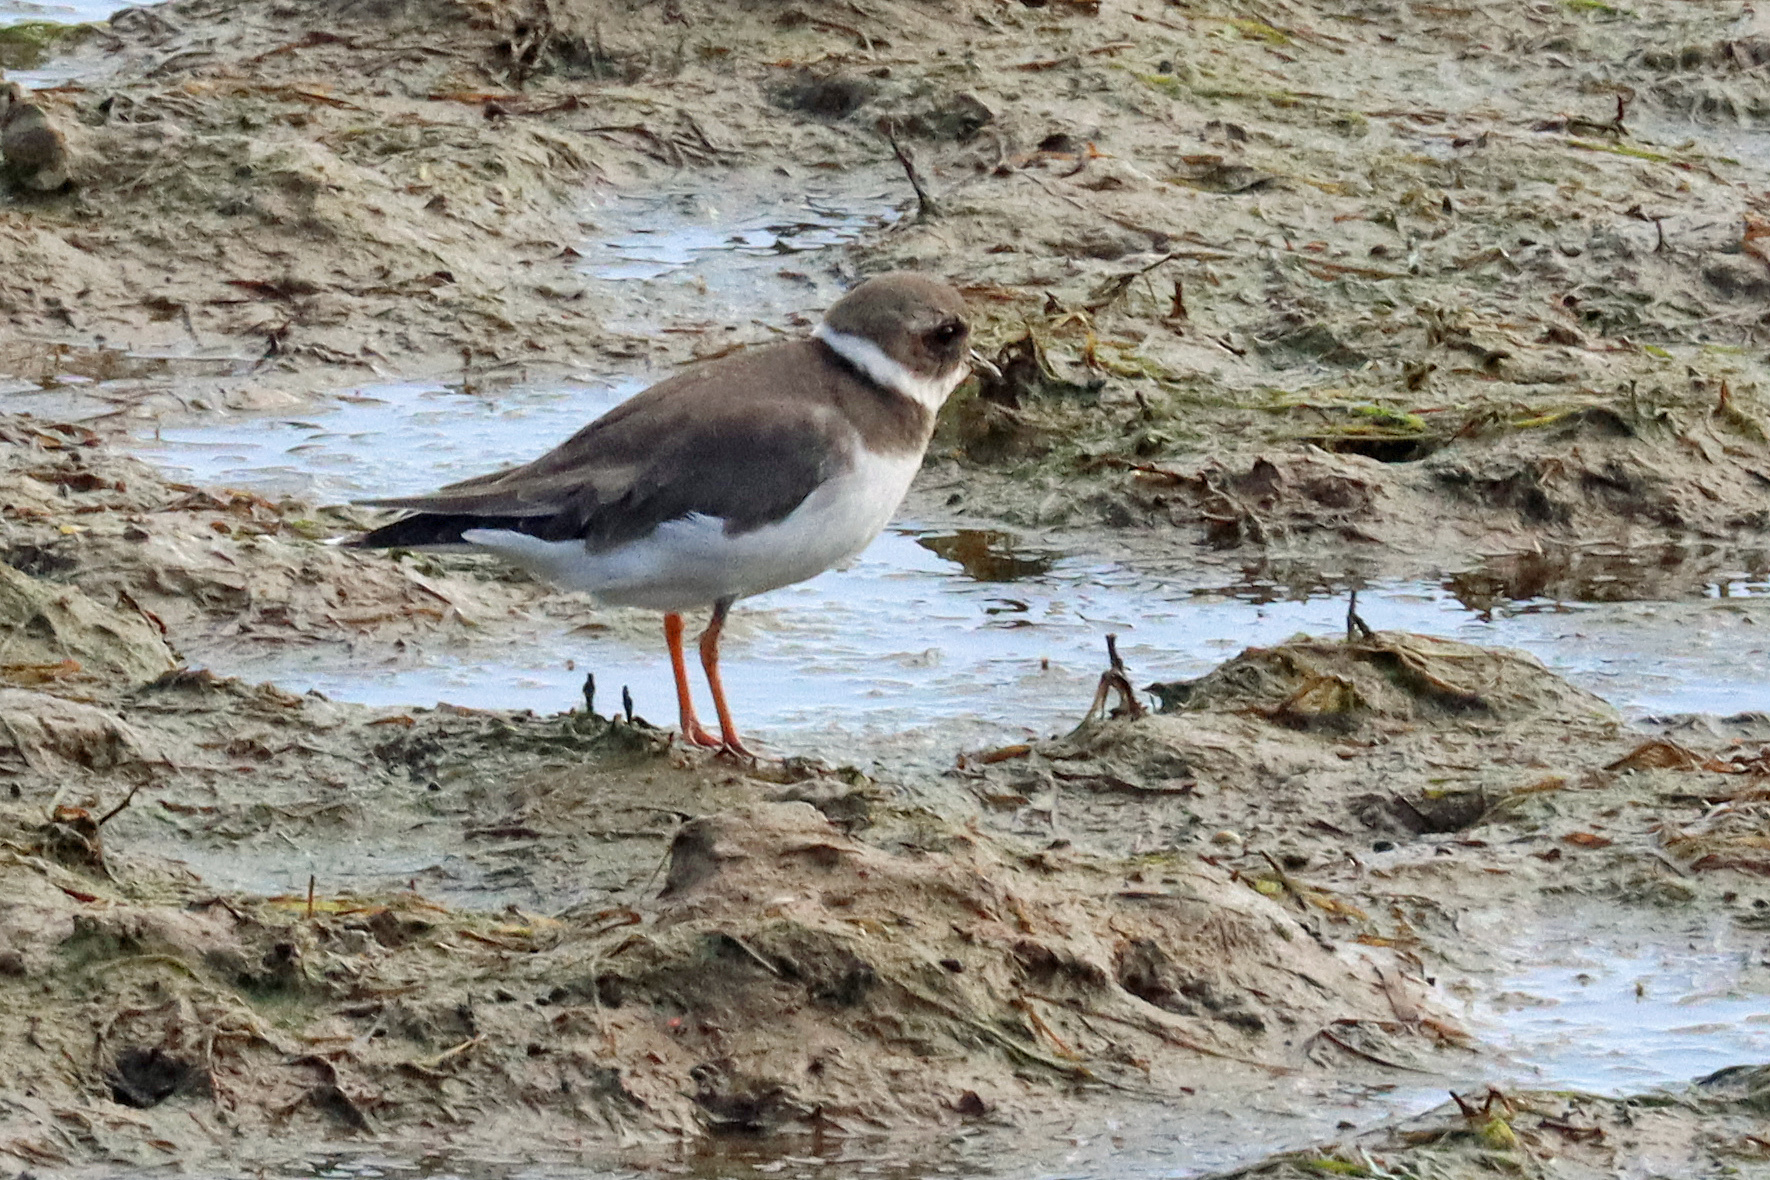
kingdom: Animalia
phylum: Chordata
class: Aves
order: Charadriiformes
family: Charadriidae
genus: Charadrius
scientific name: Charadrius hiaticula
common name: Common ringed plover
